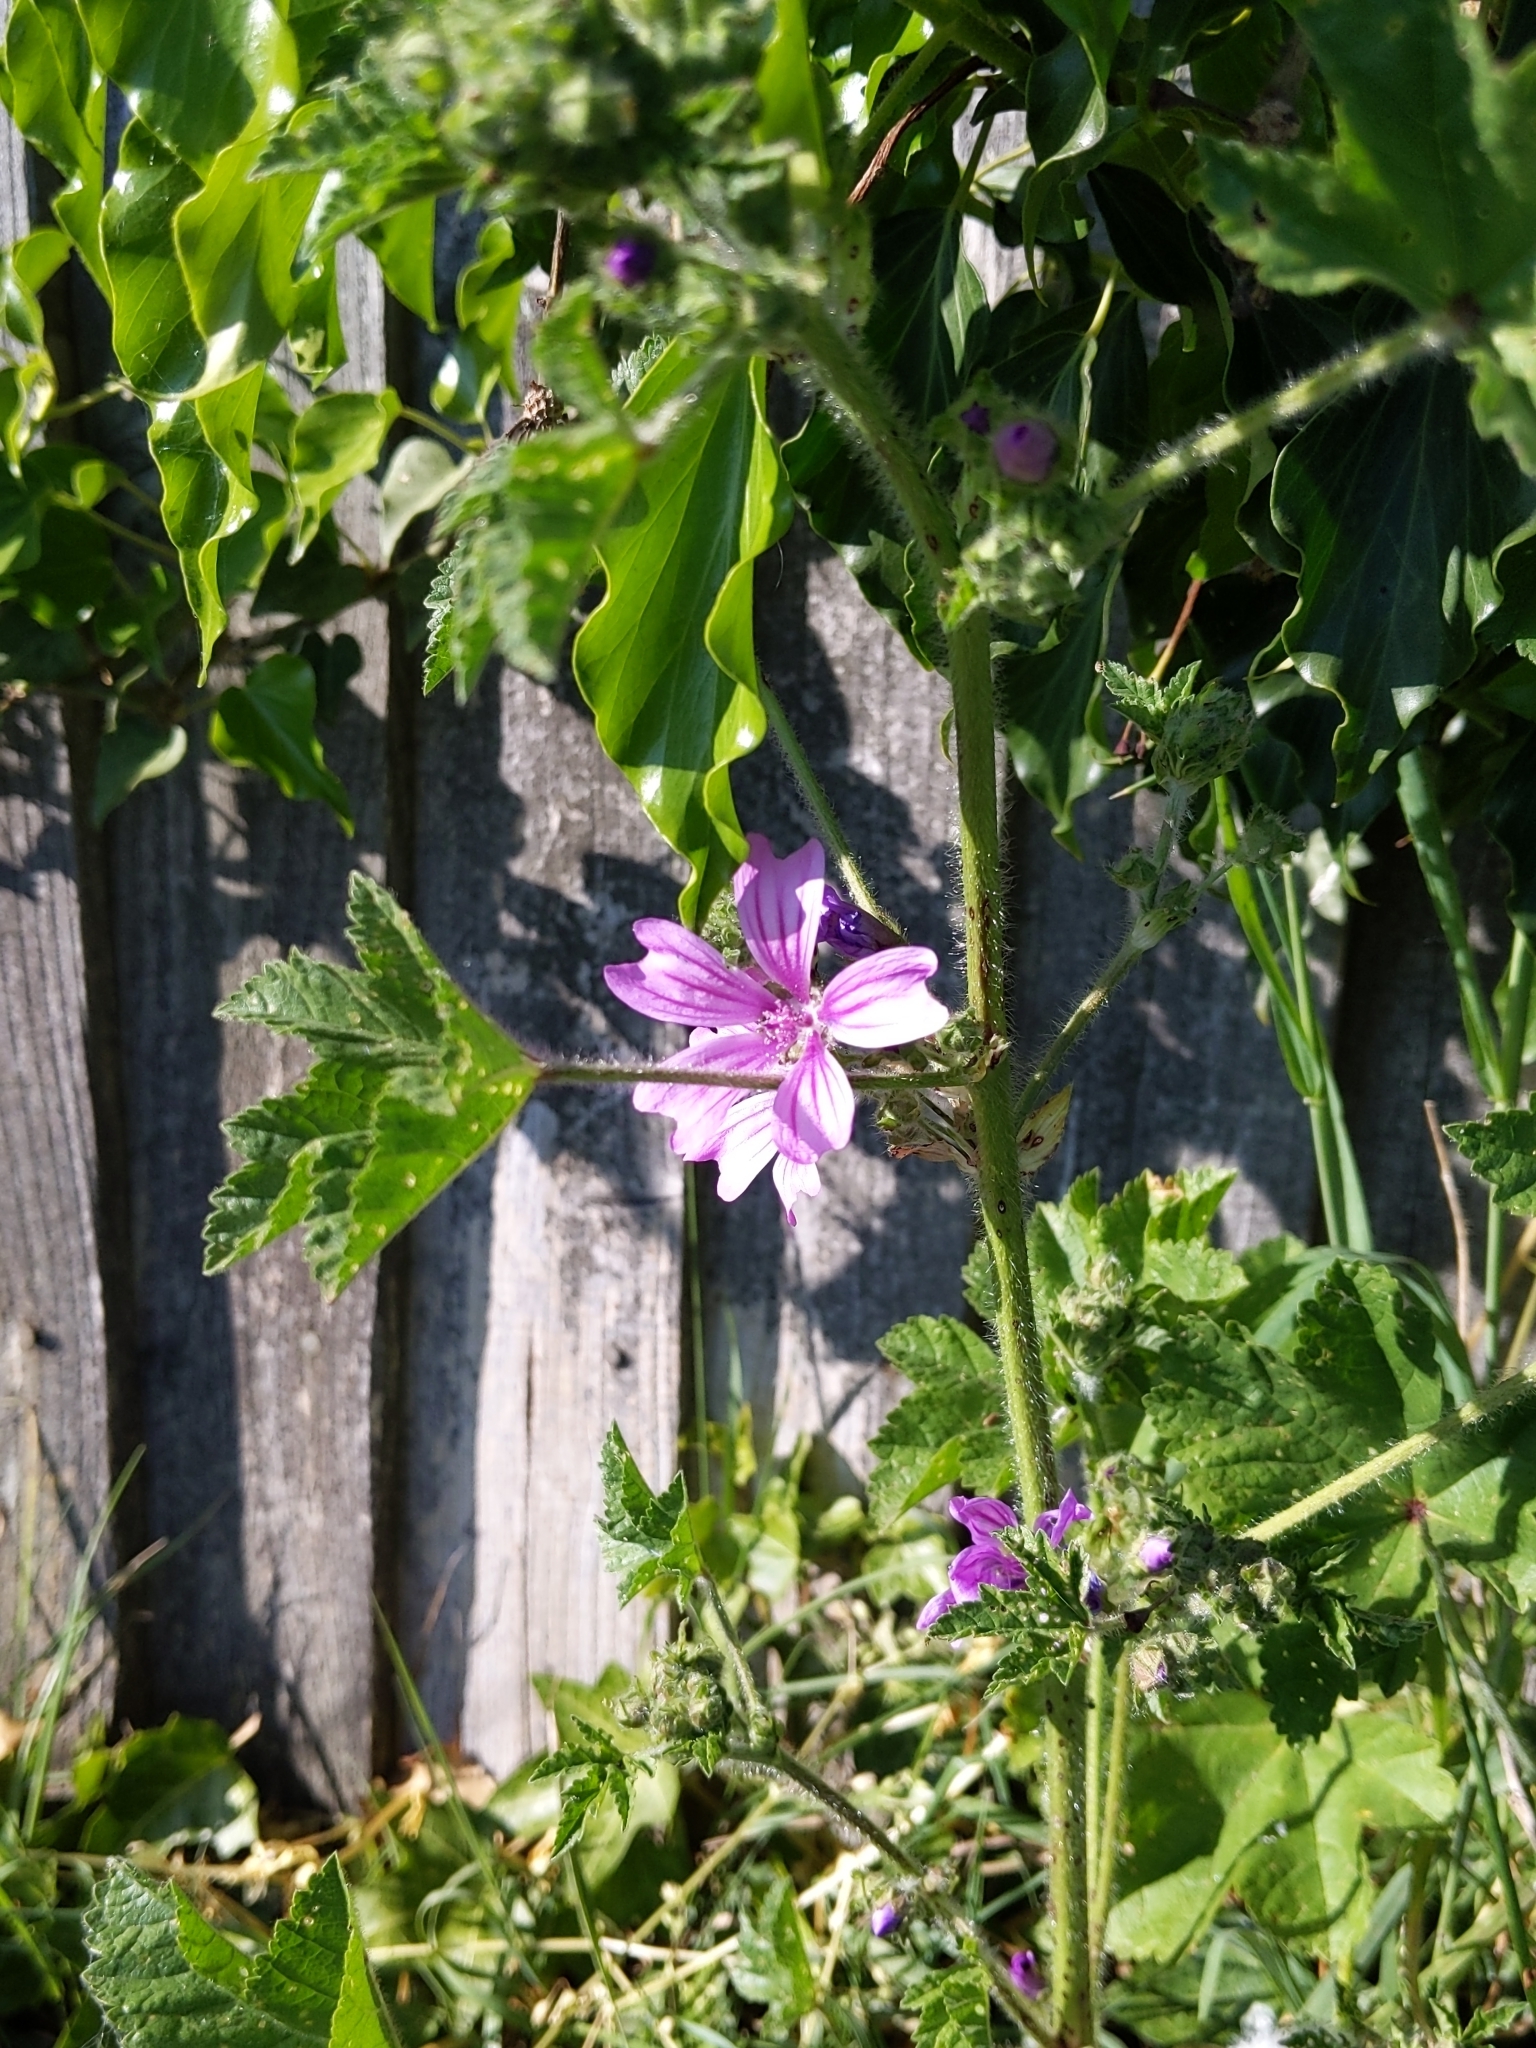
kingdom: Plantae
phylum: Tracheophyta
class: Magnoliopsida
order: Malvales
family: Malvaceae
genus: Malva
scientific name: Malva sylvestris
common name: Common mallow
